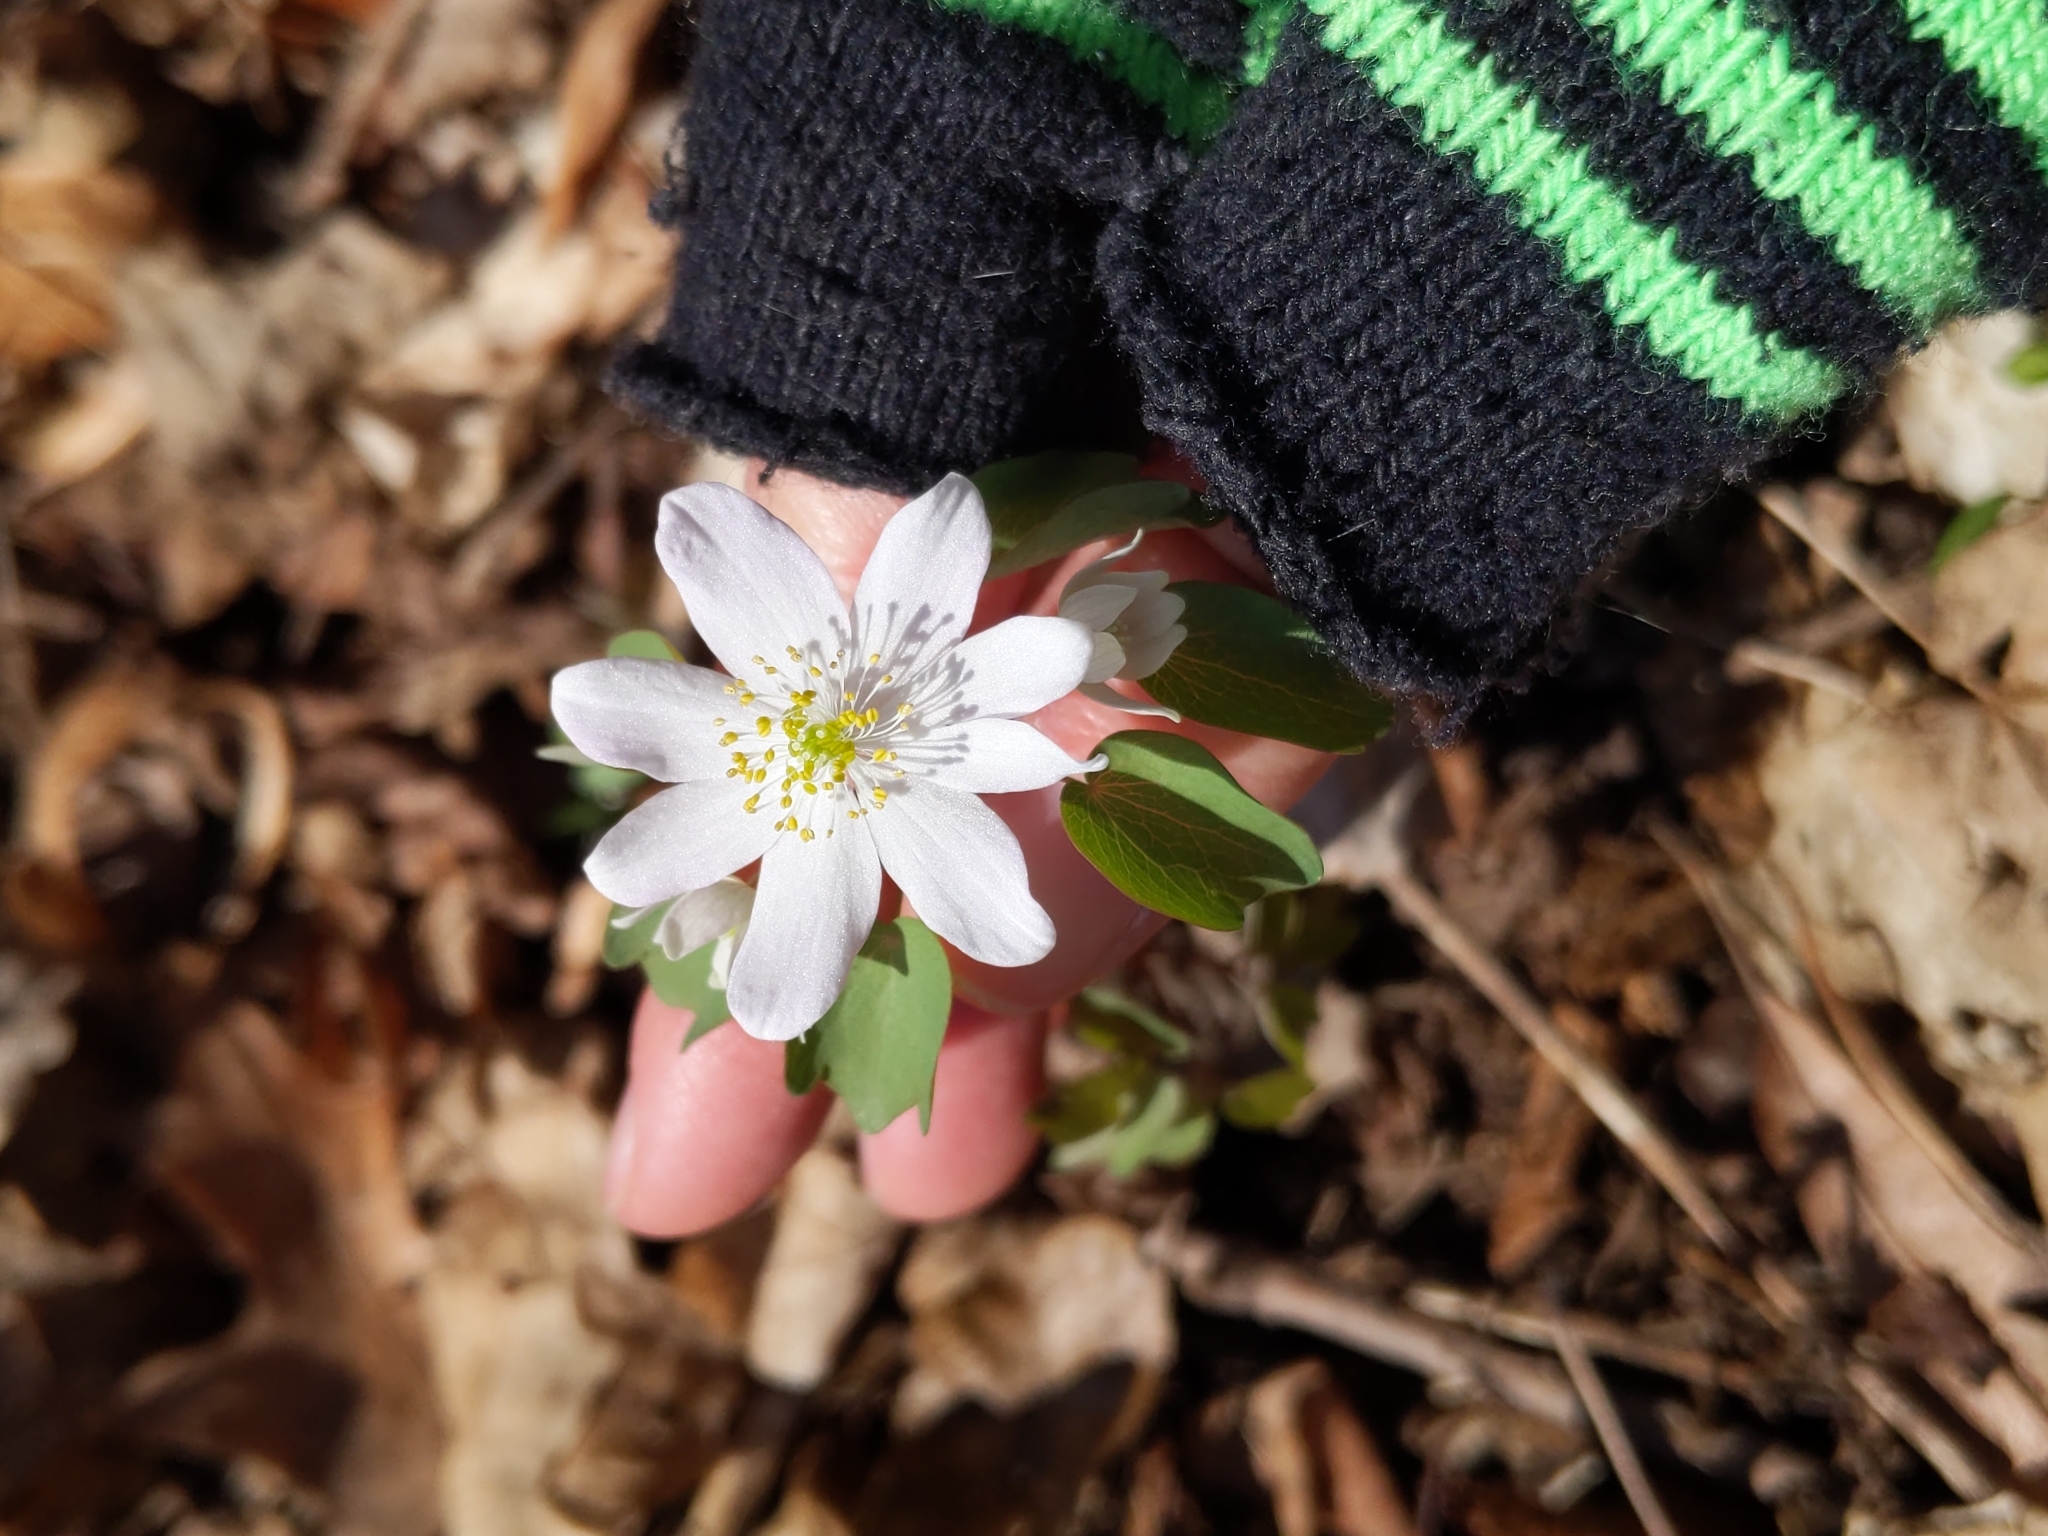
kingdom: Plantae
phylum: Tracheophyta
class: Magnoliopsida
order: Ranunculales
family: Ranunculaceae
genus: Thalictrum
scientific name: Thalictrum thalictroides
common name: Rue-anemone
